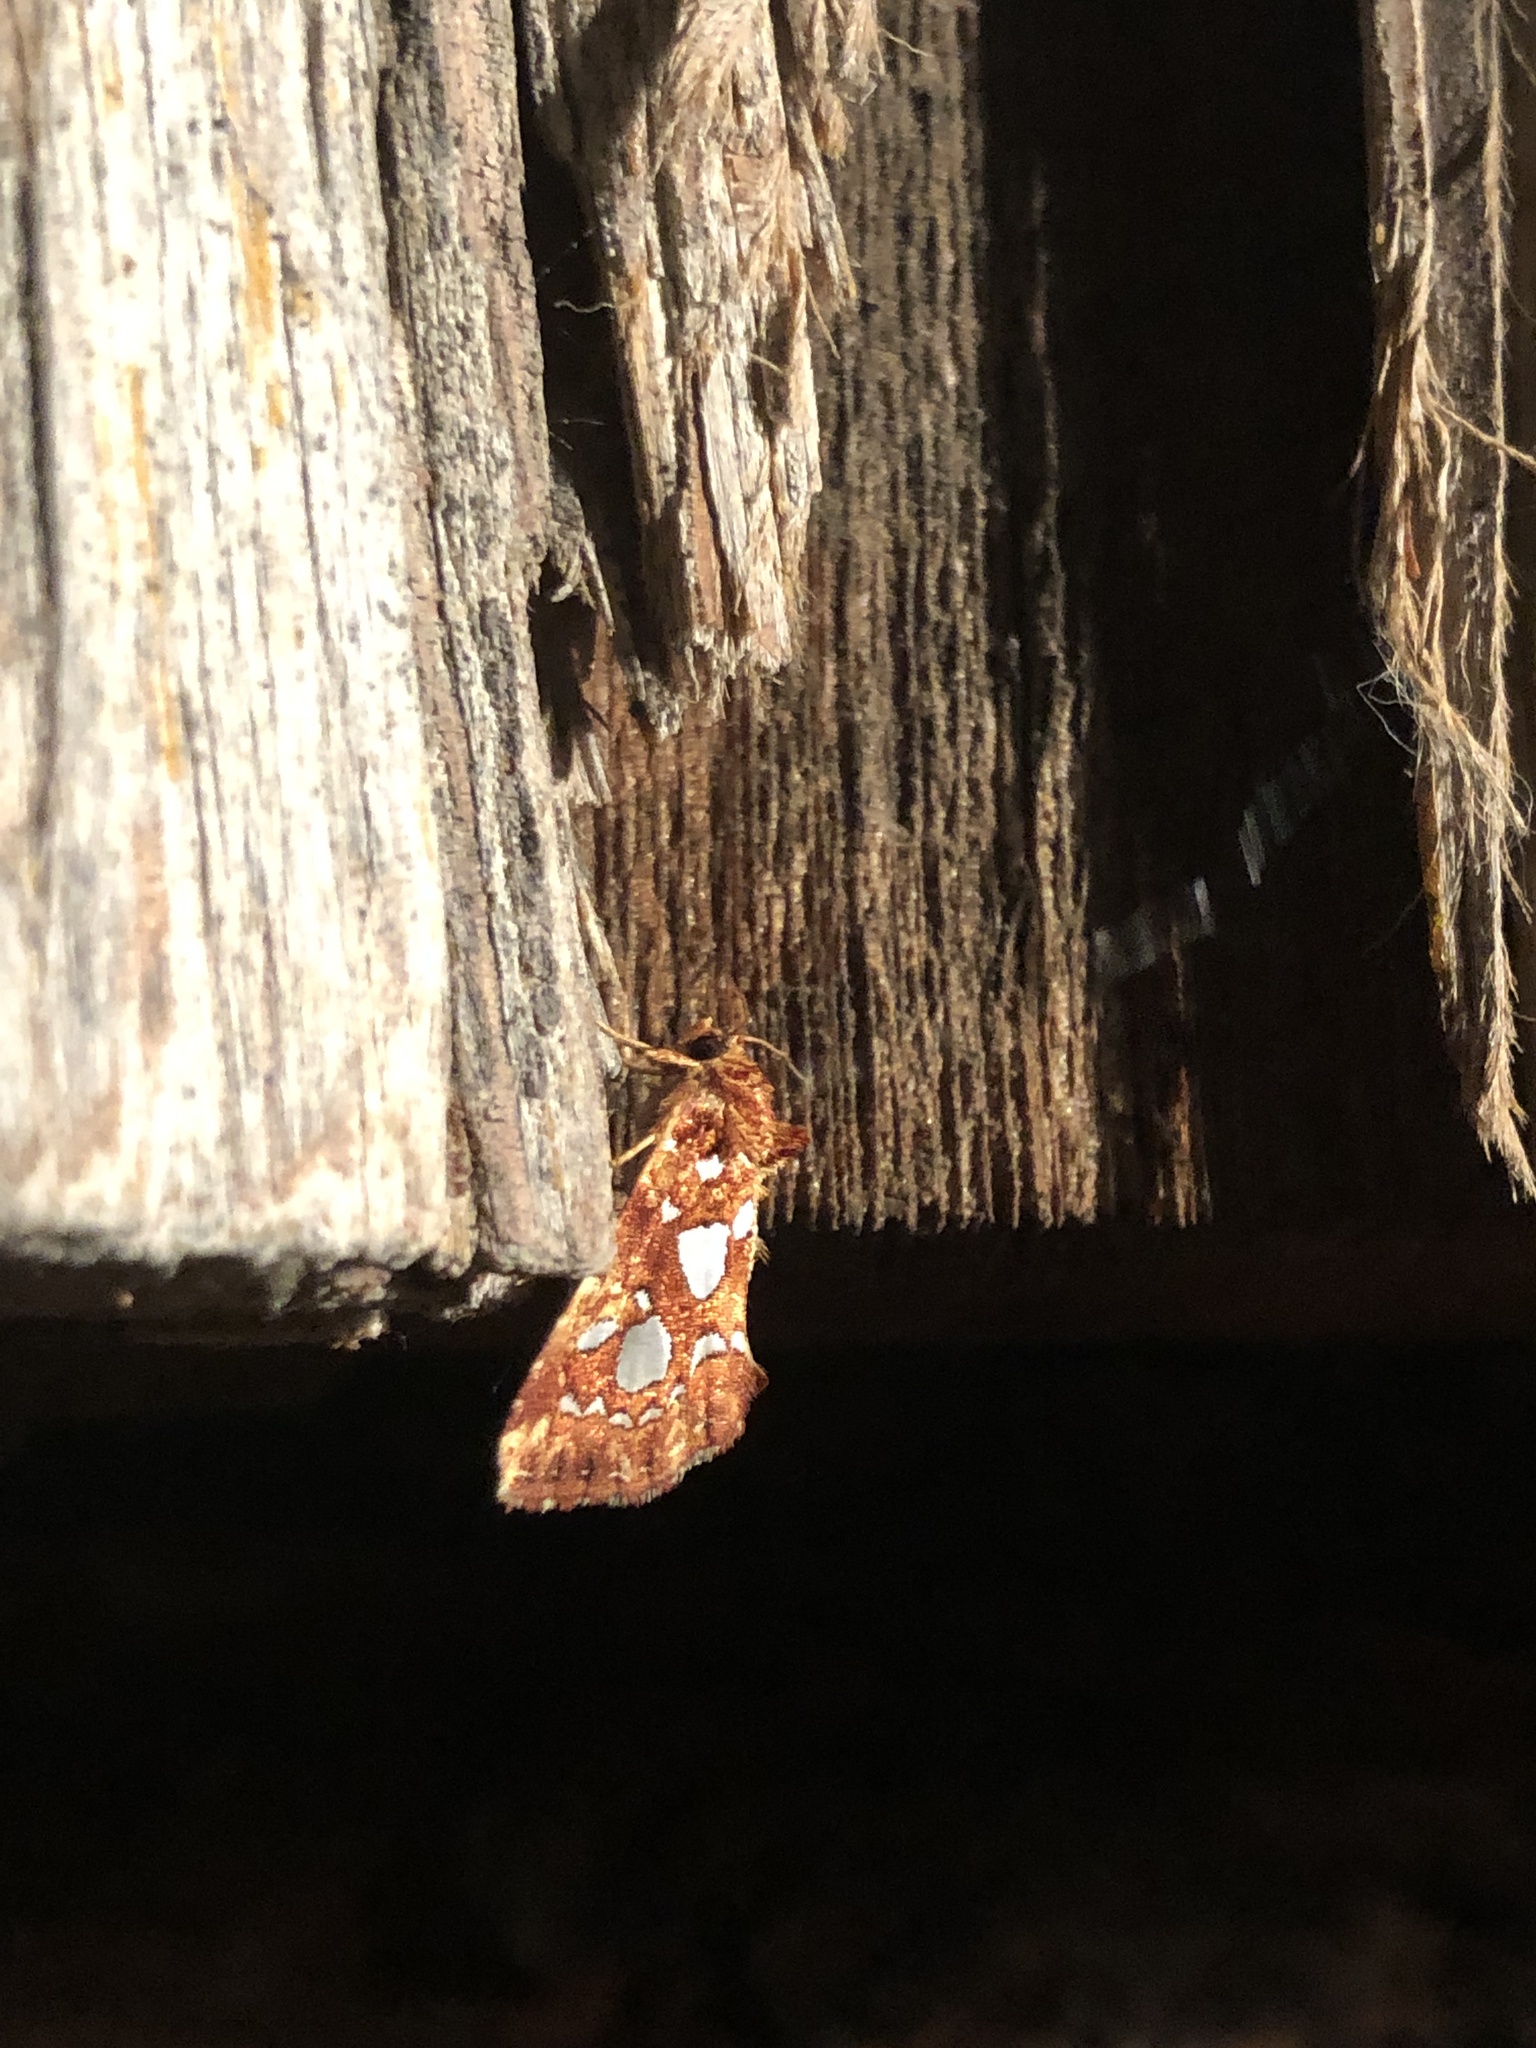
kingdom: Animalia
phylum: Arthropoda
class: Insecta
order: Lepidoptera
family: Noctuidae
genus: Callopistria
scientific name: Callopistria cordata
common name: Silver-spotted fern moth
